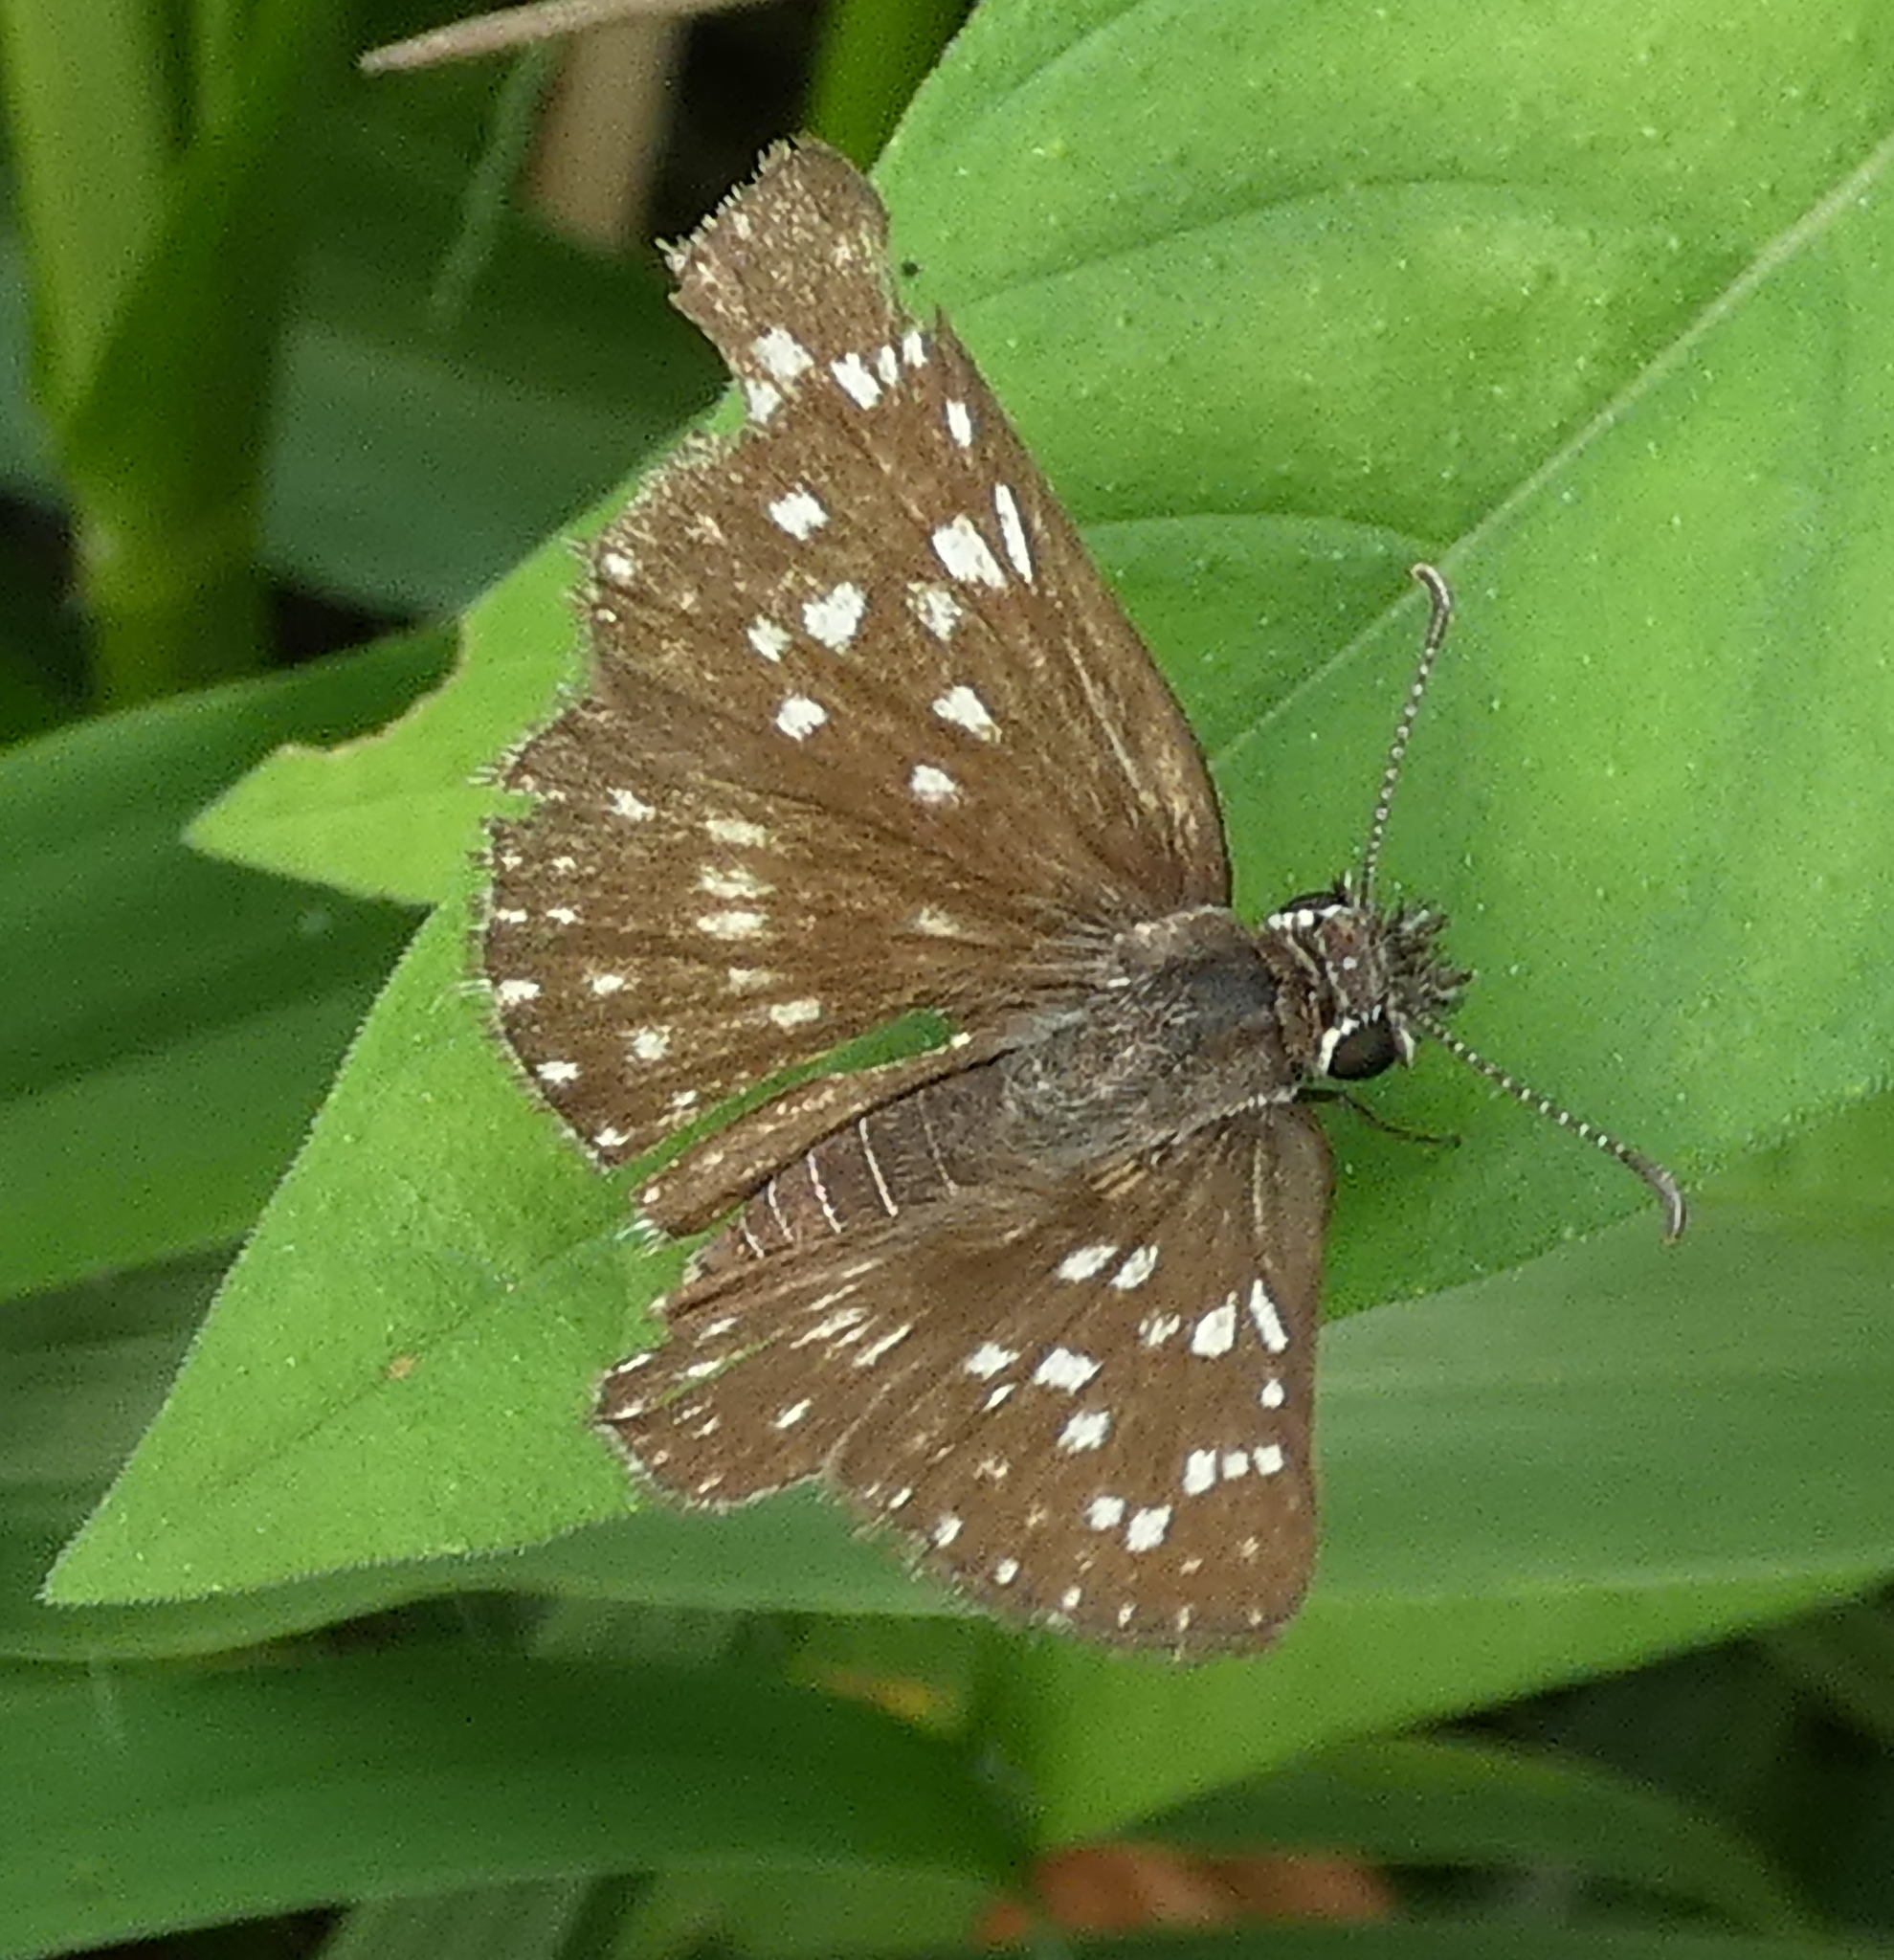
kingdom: Animalia
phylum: Arthropoda
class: Insecta
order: Lepidoptera
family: Hesperiidae
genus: Pyrgus
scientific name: Pyrgus oileus
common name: Tropical checkered-skipper
